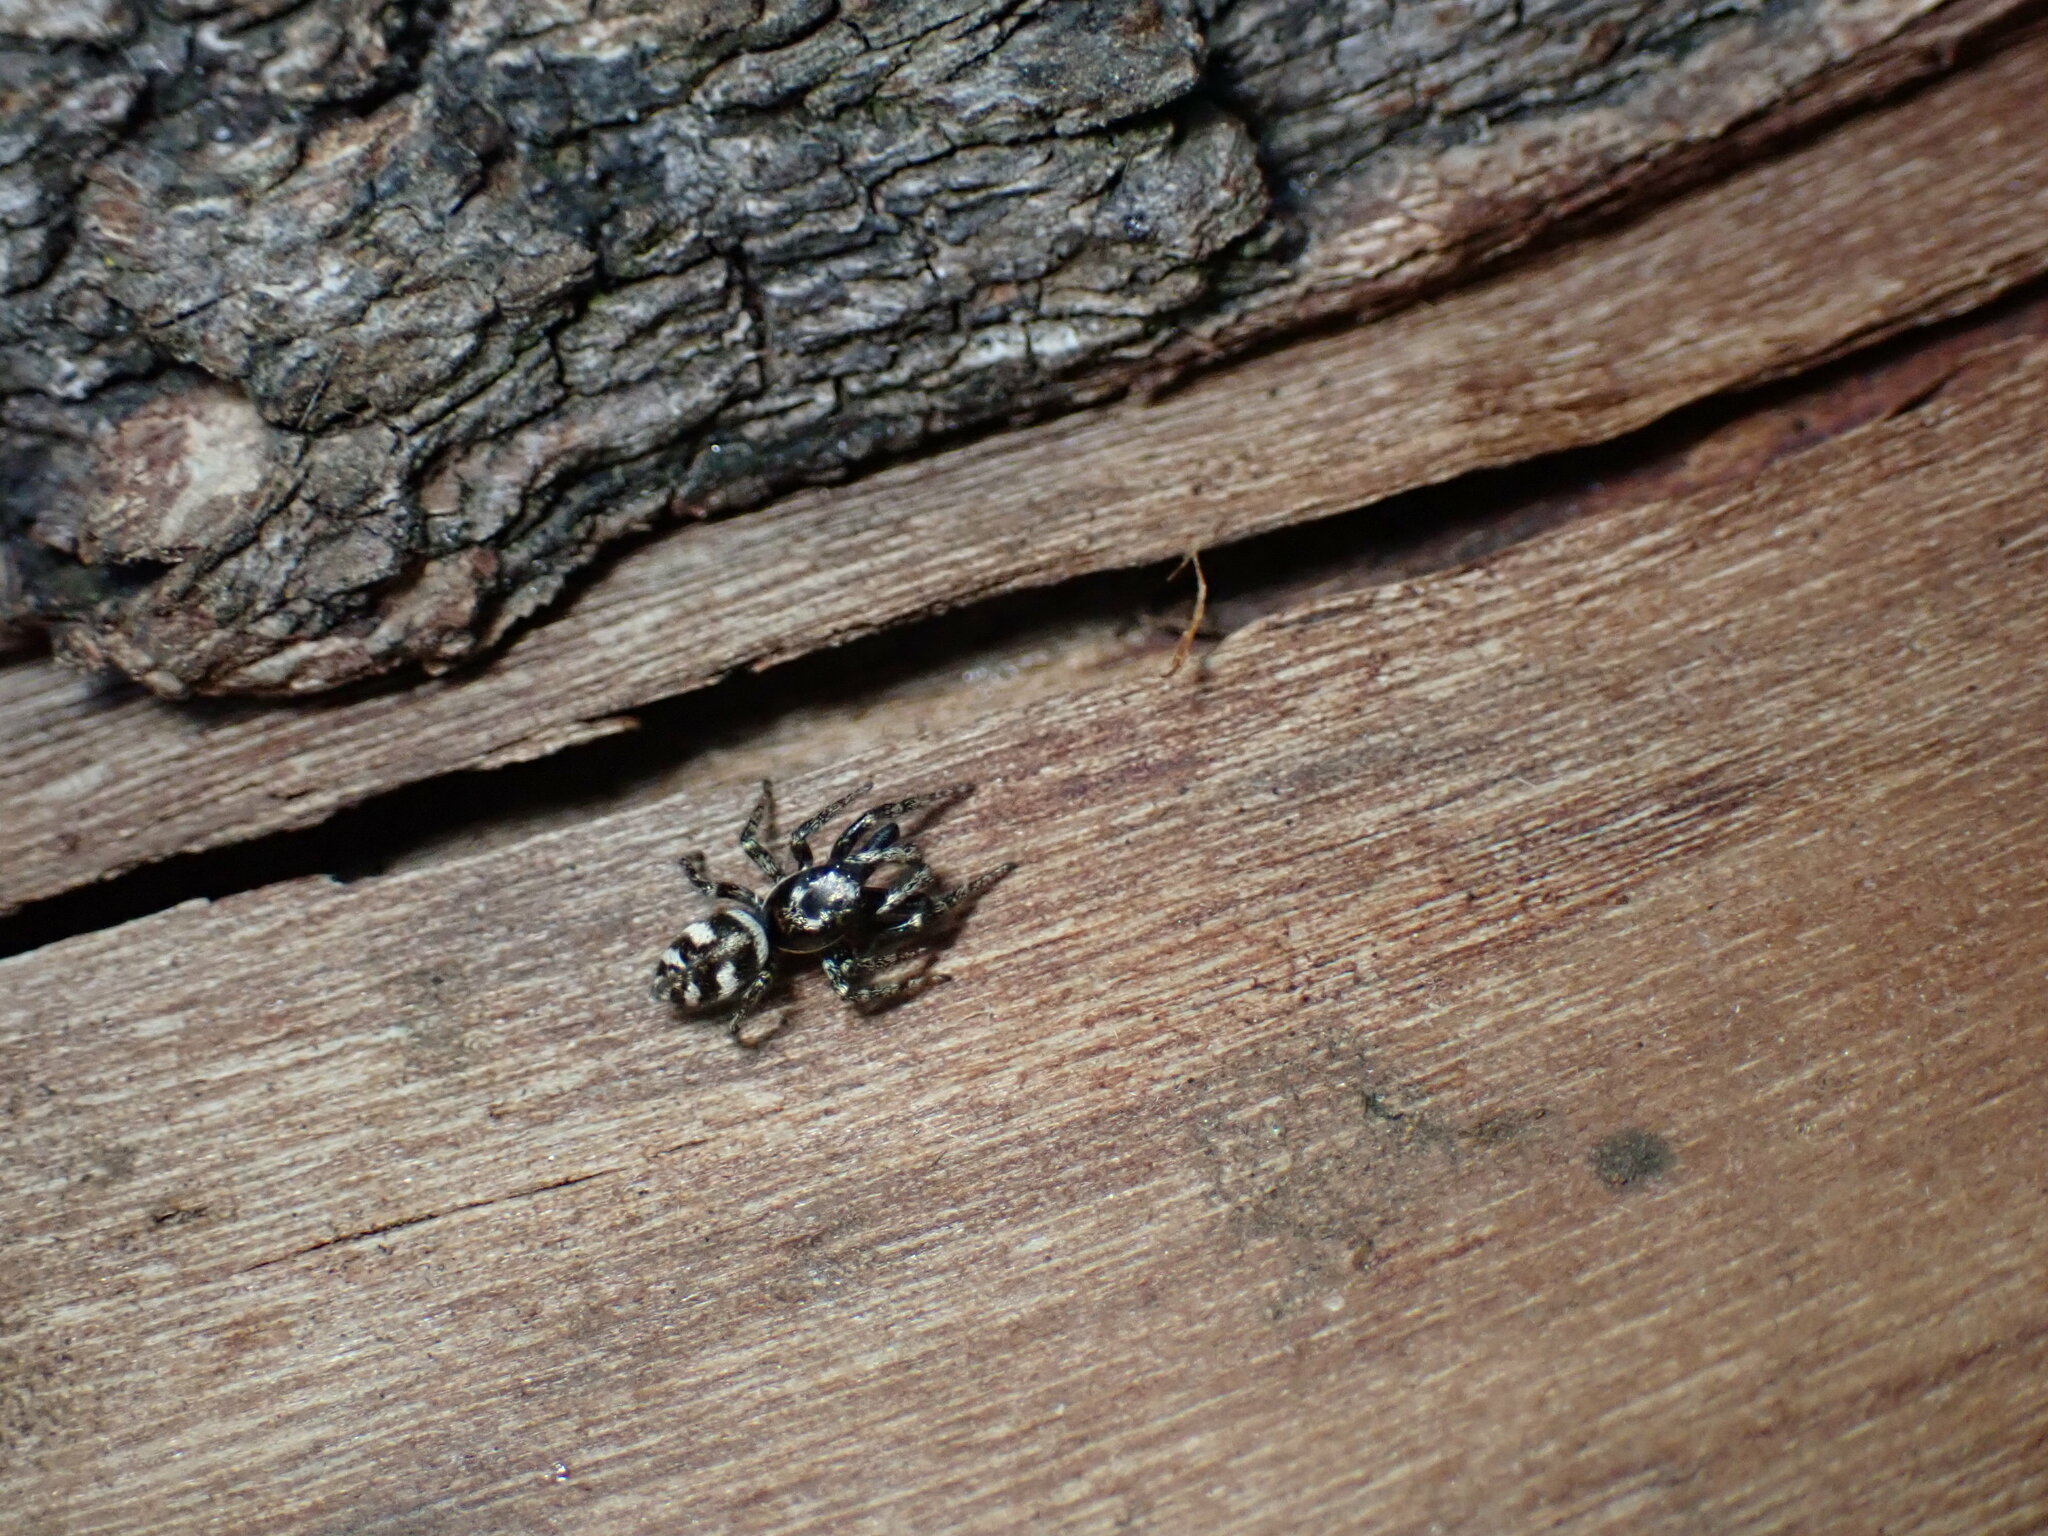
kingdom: Animalia
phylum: Arthropoda
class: Arachnida
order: Araneae
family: Salticidae
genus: Salticus
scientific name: Salticus scenicus
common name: Zebra jumper
